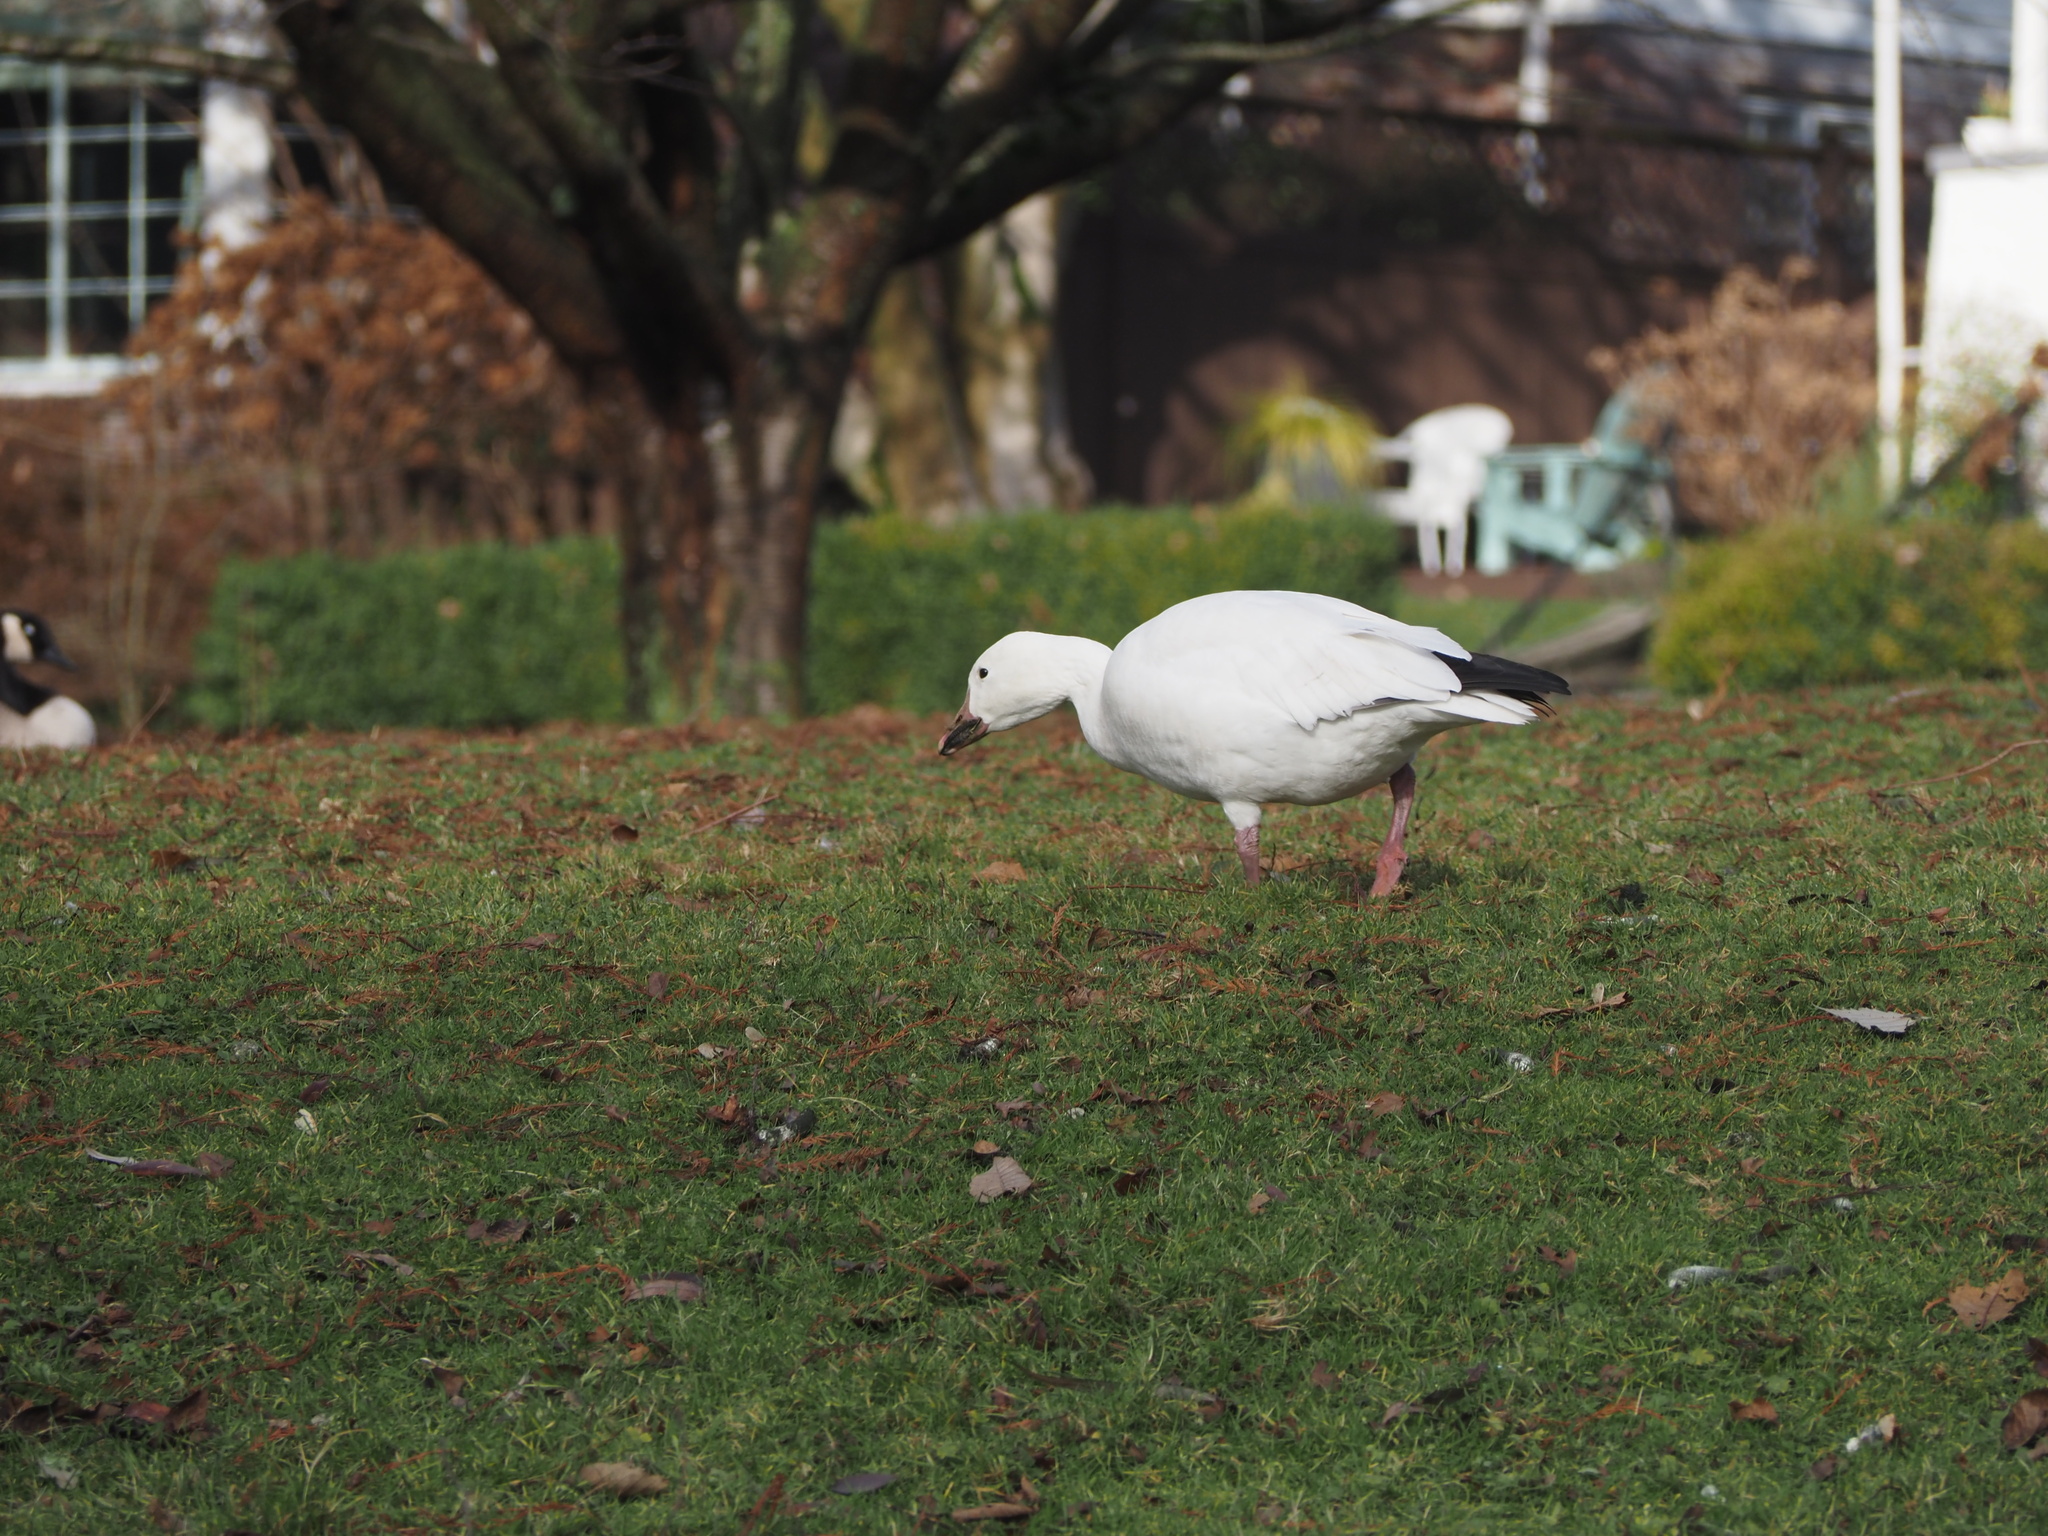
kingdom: Animalia
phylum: Chordata
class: Aves
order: Anseriformes
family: Anatidae
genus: Anser
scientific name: Anser caerulescens
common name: Snow goose
